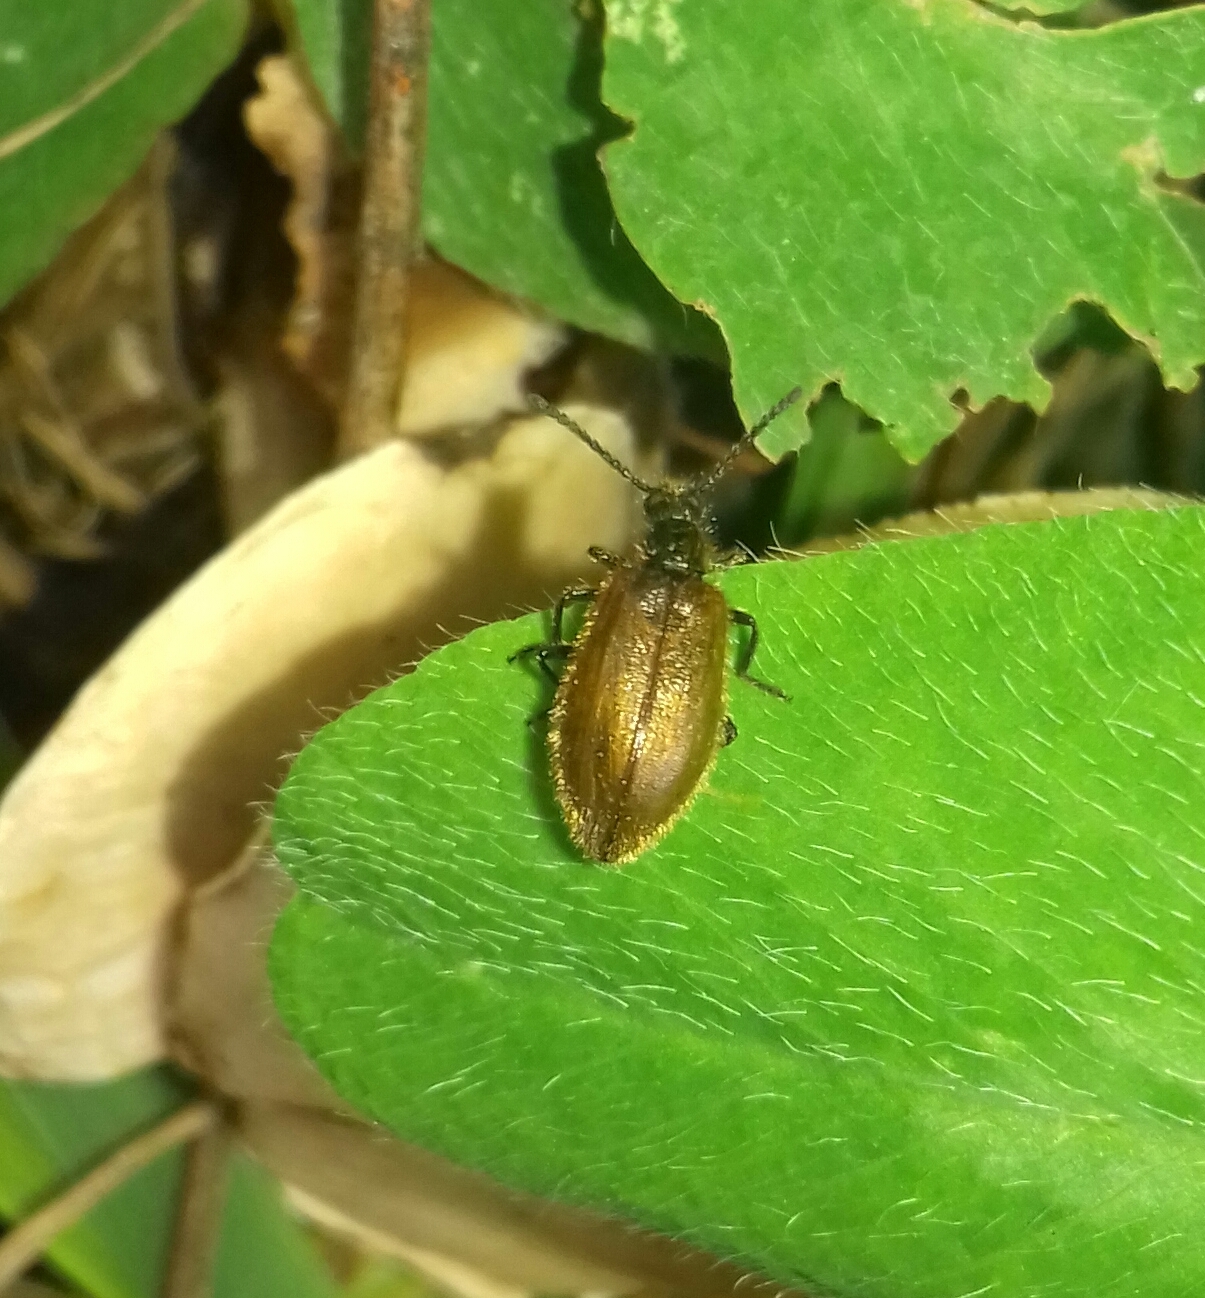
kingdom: Animalia
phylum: Arthropoda
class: Insecta
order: Coleoptera
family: Tenebrionidae
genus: Lagria
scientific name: Lagria hirta
